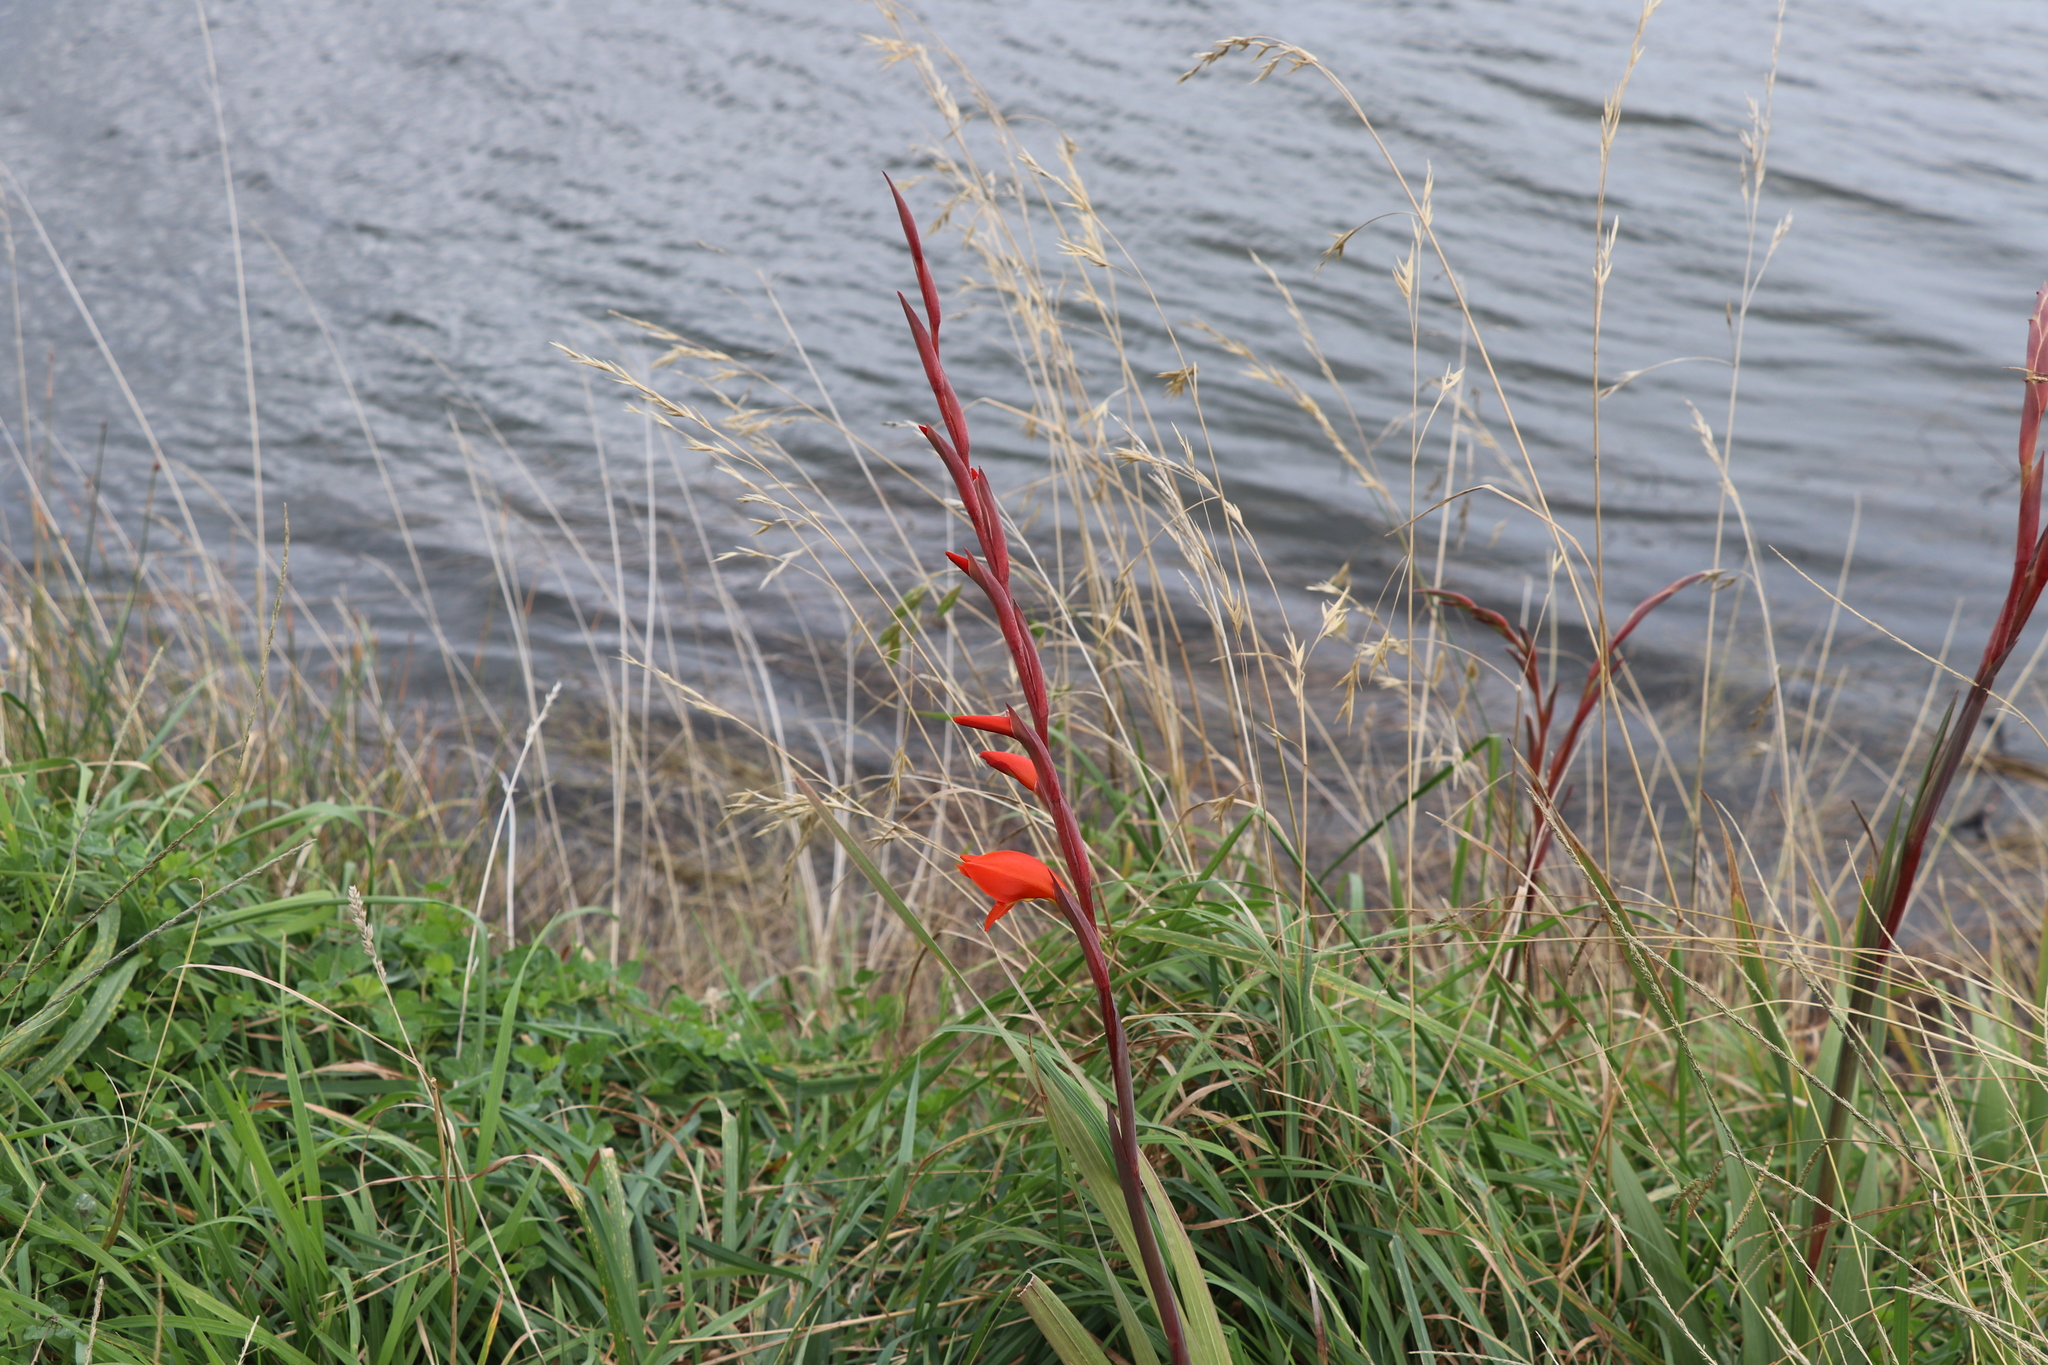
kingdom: Plantae
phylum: Tracheophyta
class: Liliopsida
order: Asparagales
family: Iridaceae
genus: Crocosmia
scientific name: Crocosmia crocosmiiflora
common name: Montbretia
